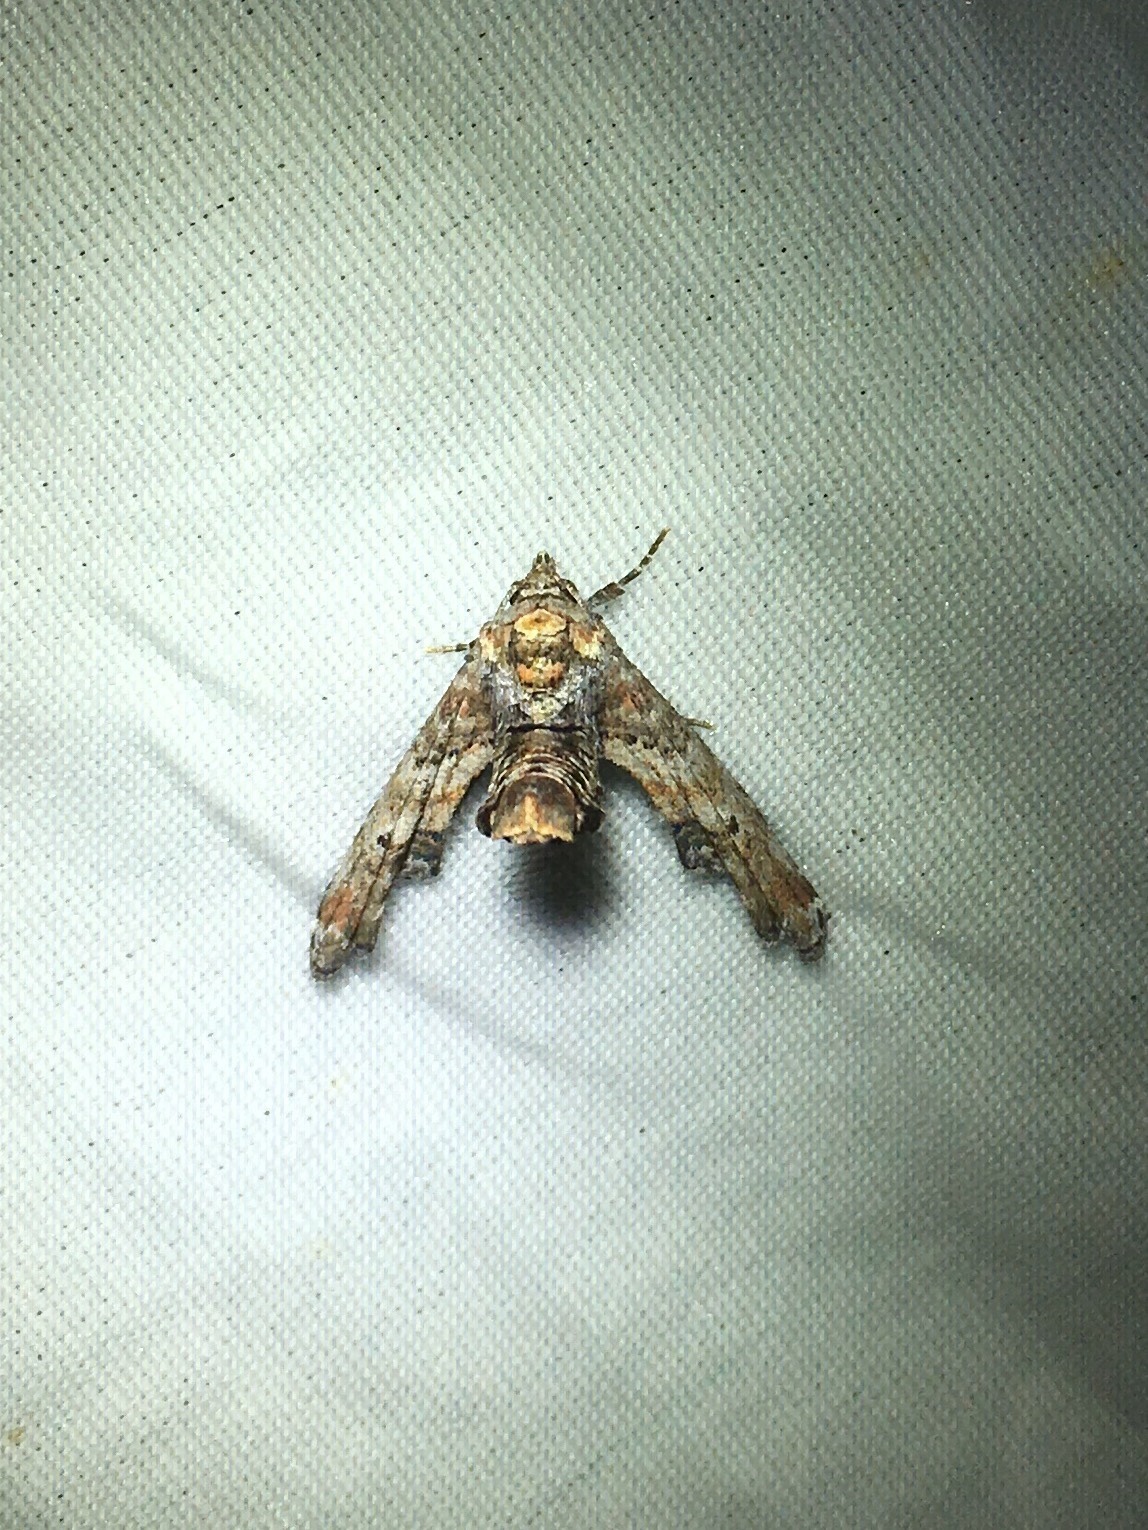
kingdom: Animalia
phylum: Arthropoda
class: Insecta
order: Lepidoptera
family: Euteliidae
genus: Marathyssa
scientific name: Marathyssa inficita
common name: Dark marathyssa moth
